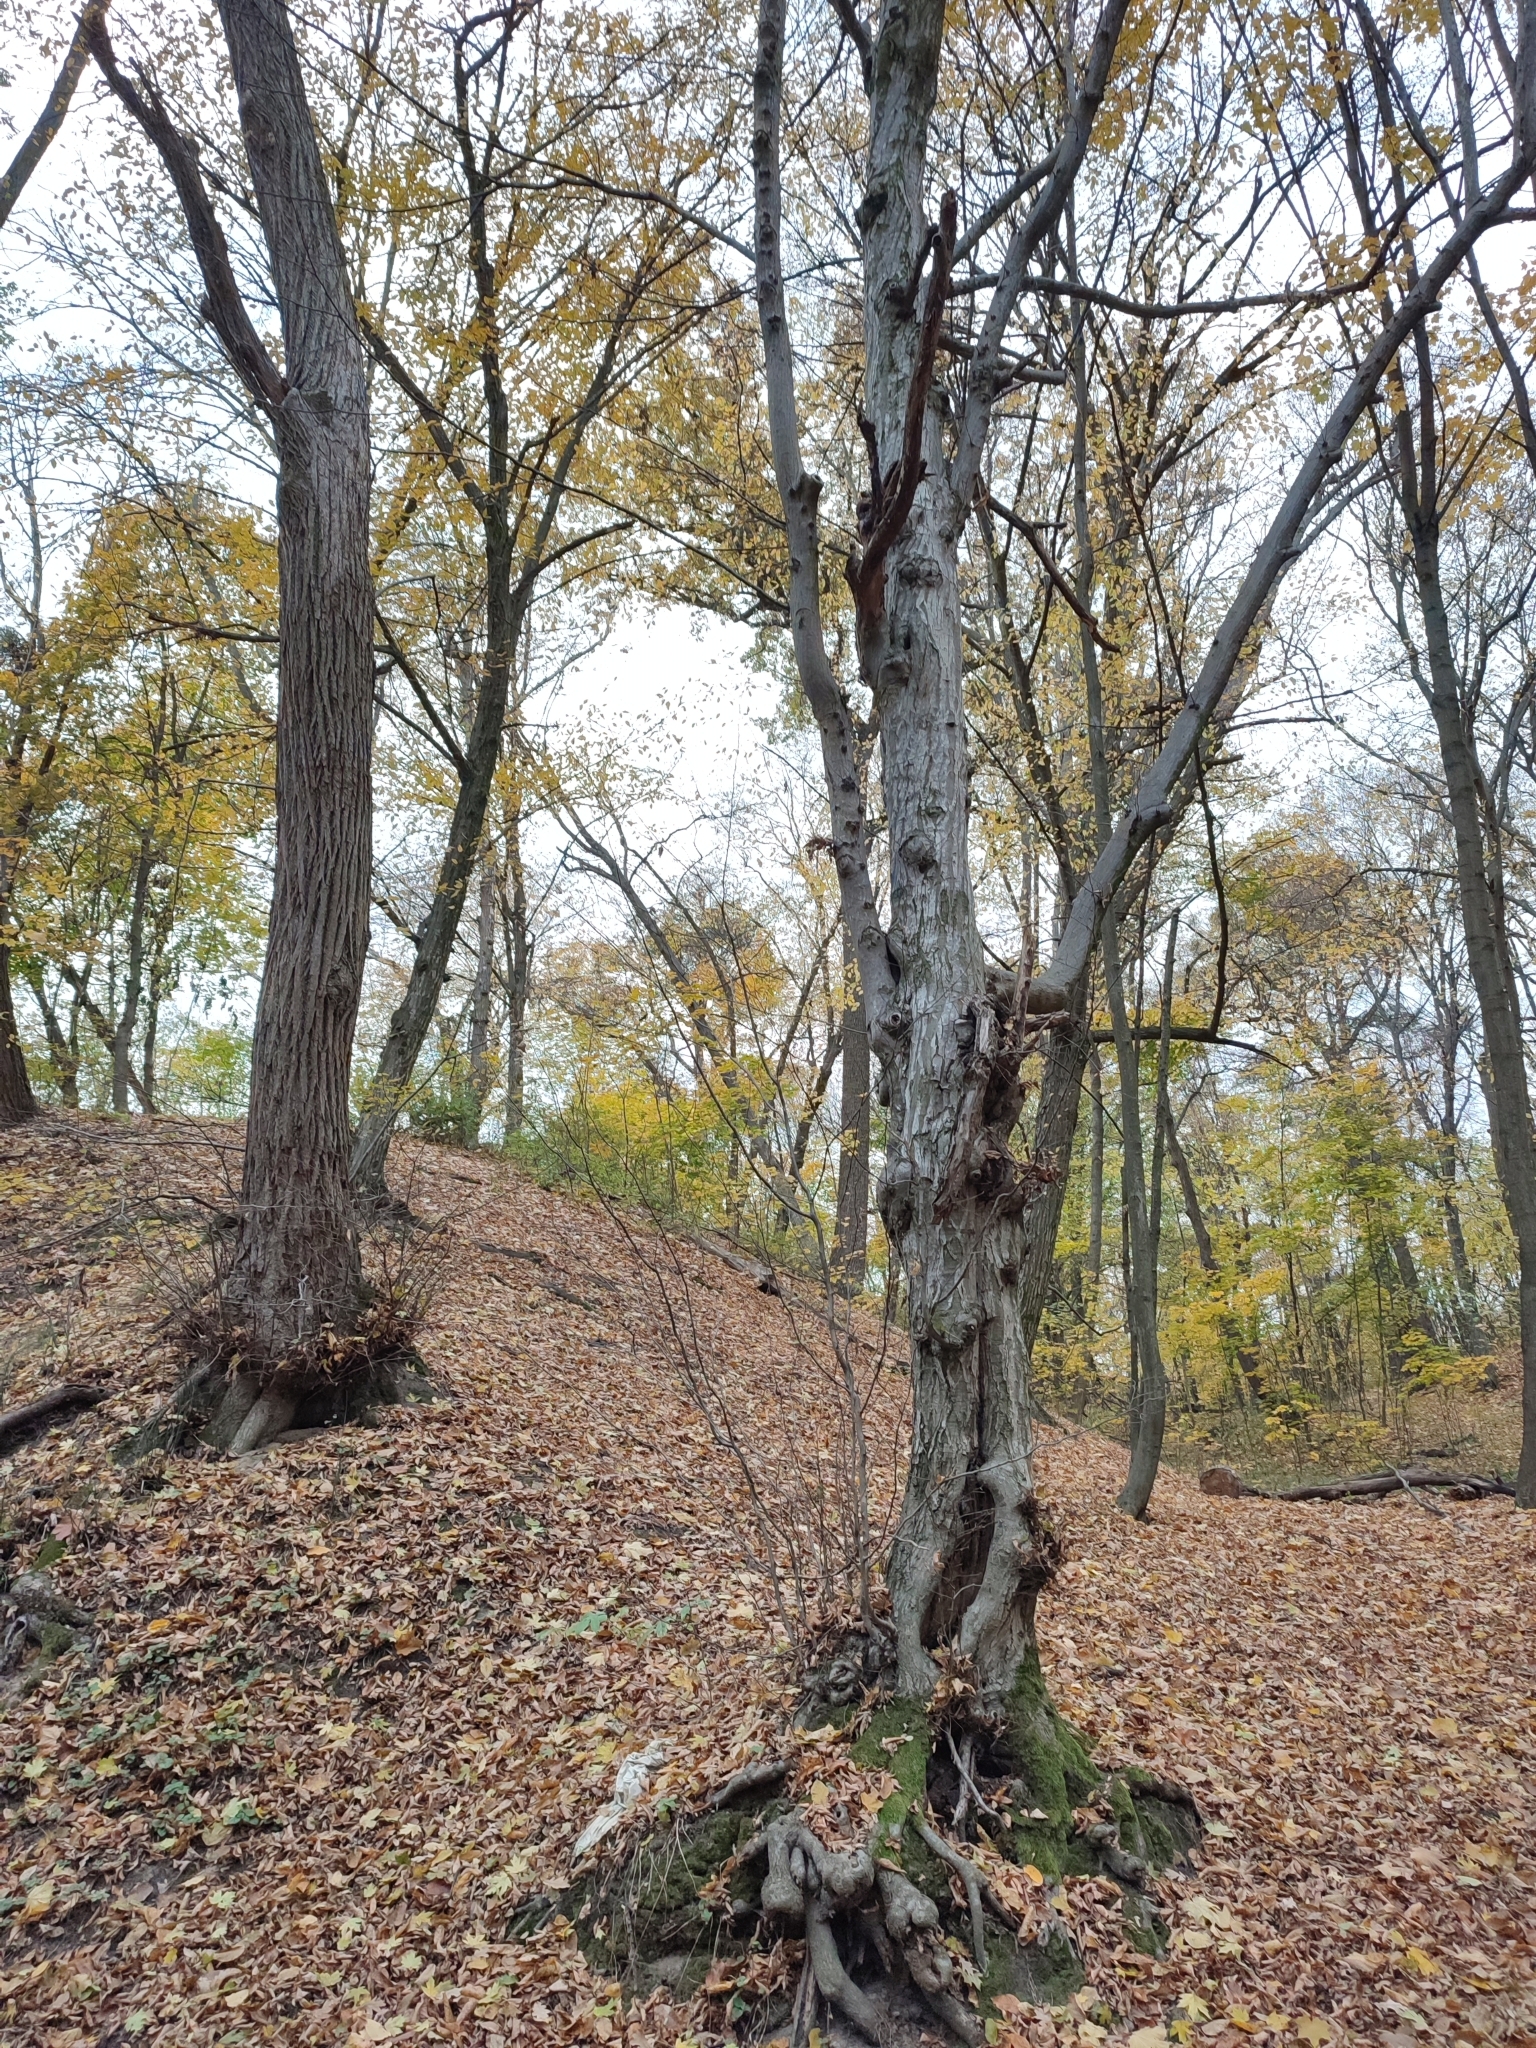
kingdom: Plantae
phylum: Tracheophyta
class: Magnoliopsida
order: Fagales
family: Betulaceae
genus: Carpinus
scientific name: Carpinus betulus
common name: Hornbeam
